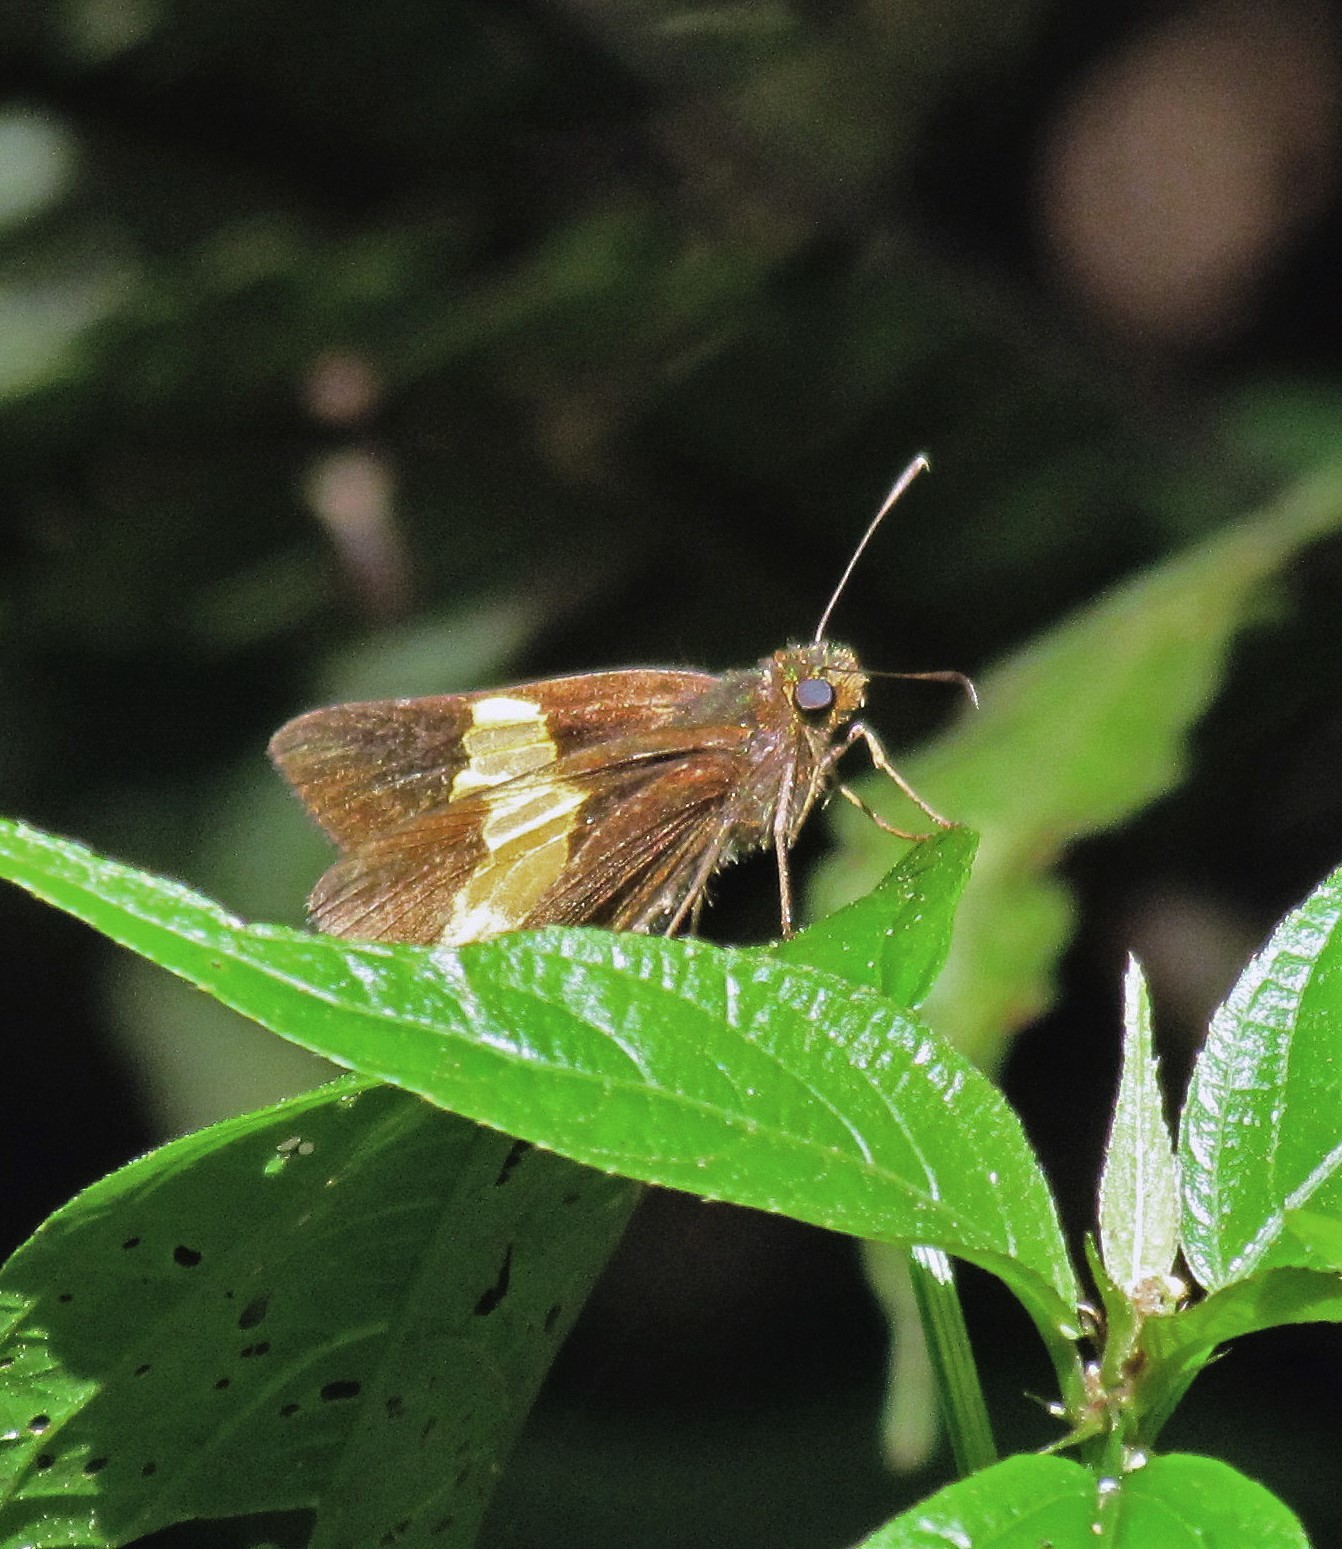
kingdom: Animalia
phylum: Arthropoda
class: Insecta
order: Lepidoptera
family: Hesperiidae
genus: Lychnuchus
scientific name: Lychnuchus celsus
